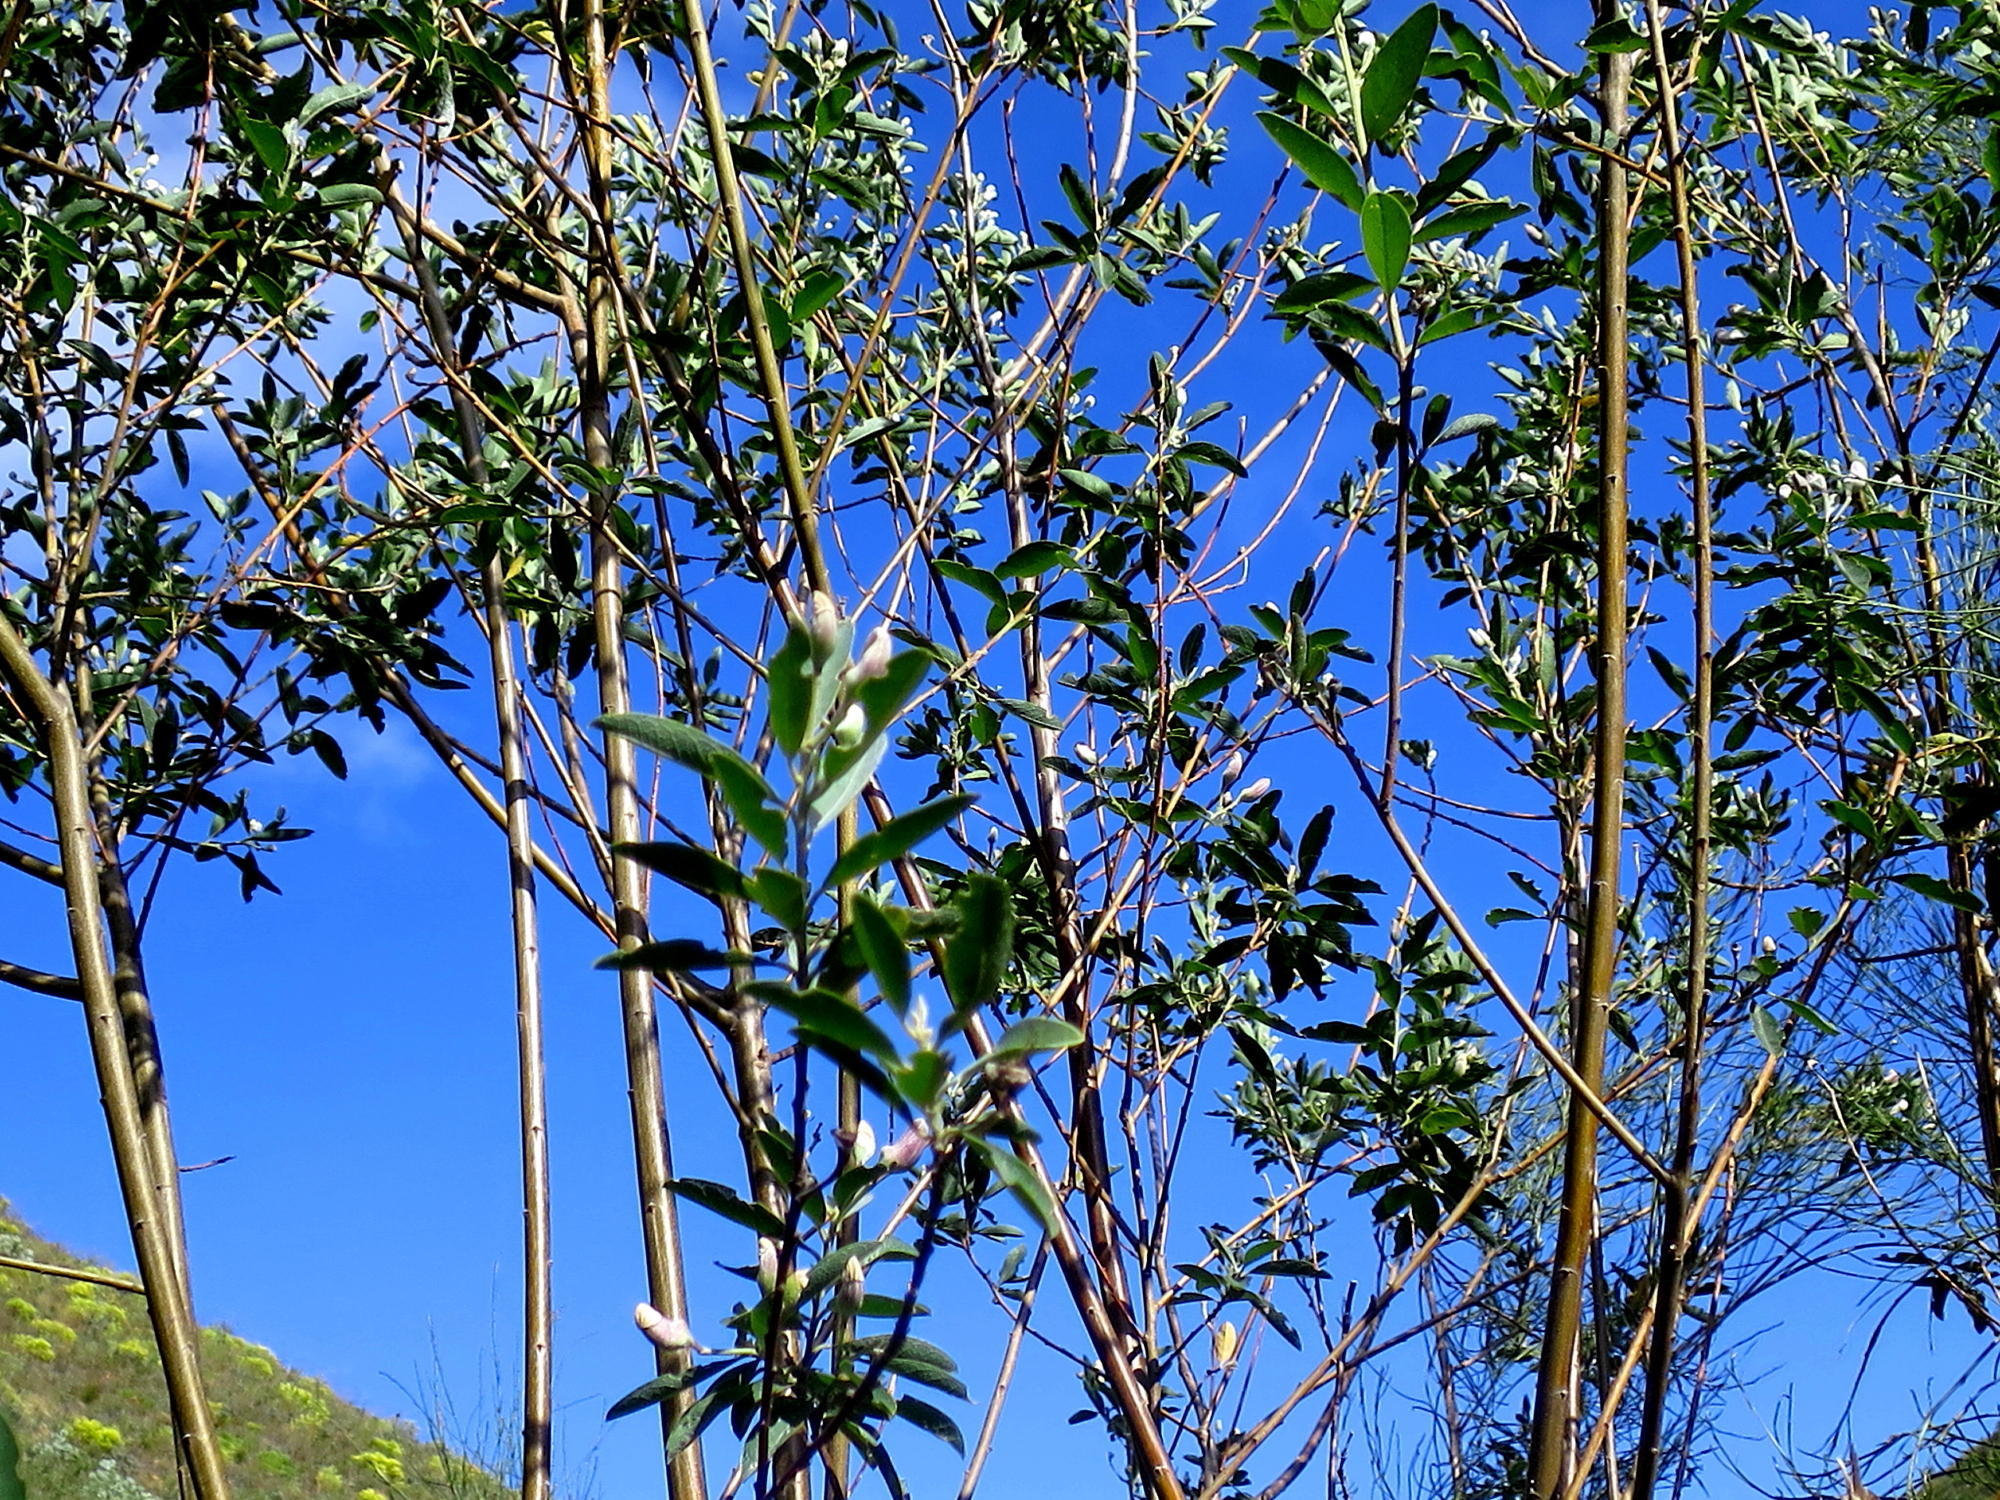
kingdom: Plantae
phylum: Tracheophyta
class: Magnoliopsida
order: Fabales
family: Fabaceae
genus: Podalyria
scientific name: Podalyria calyptrata
